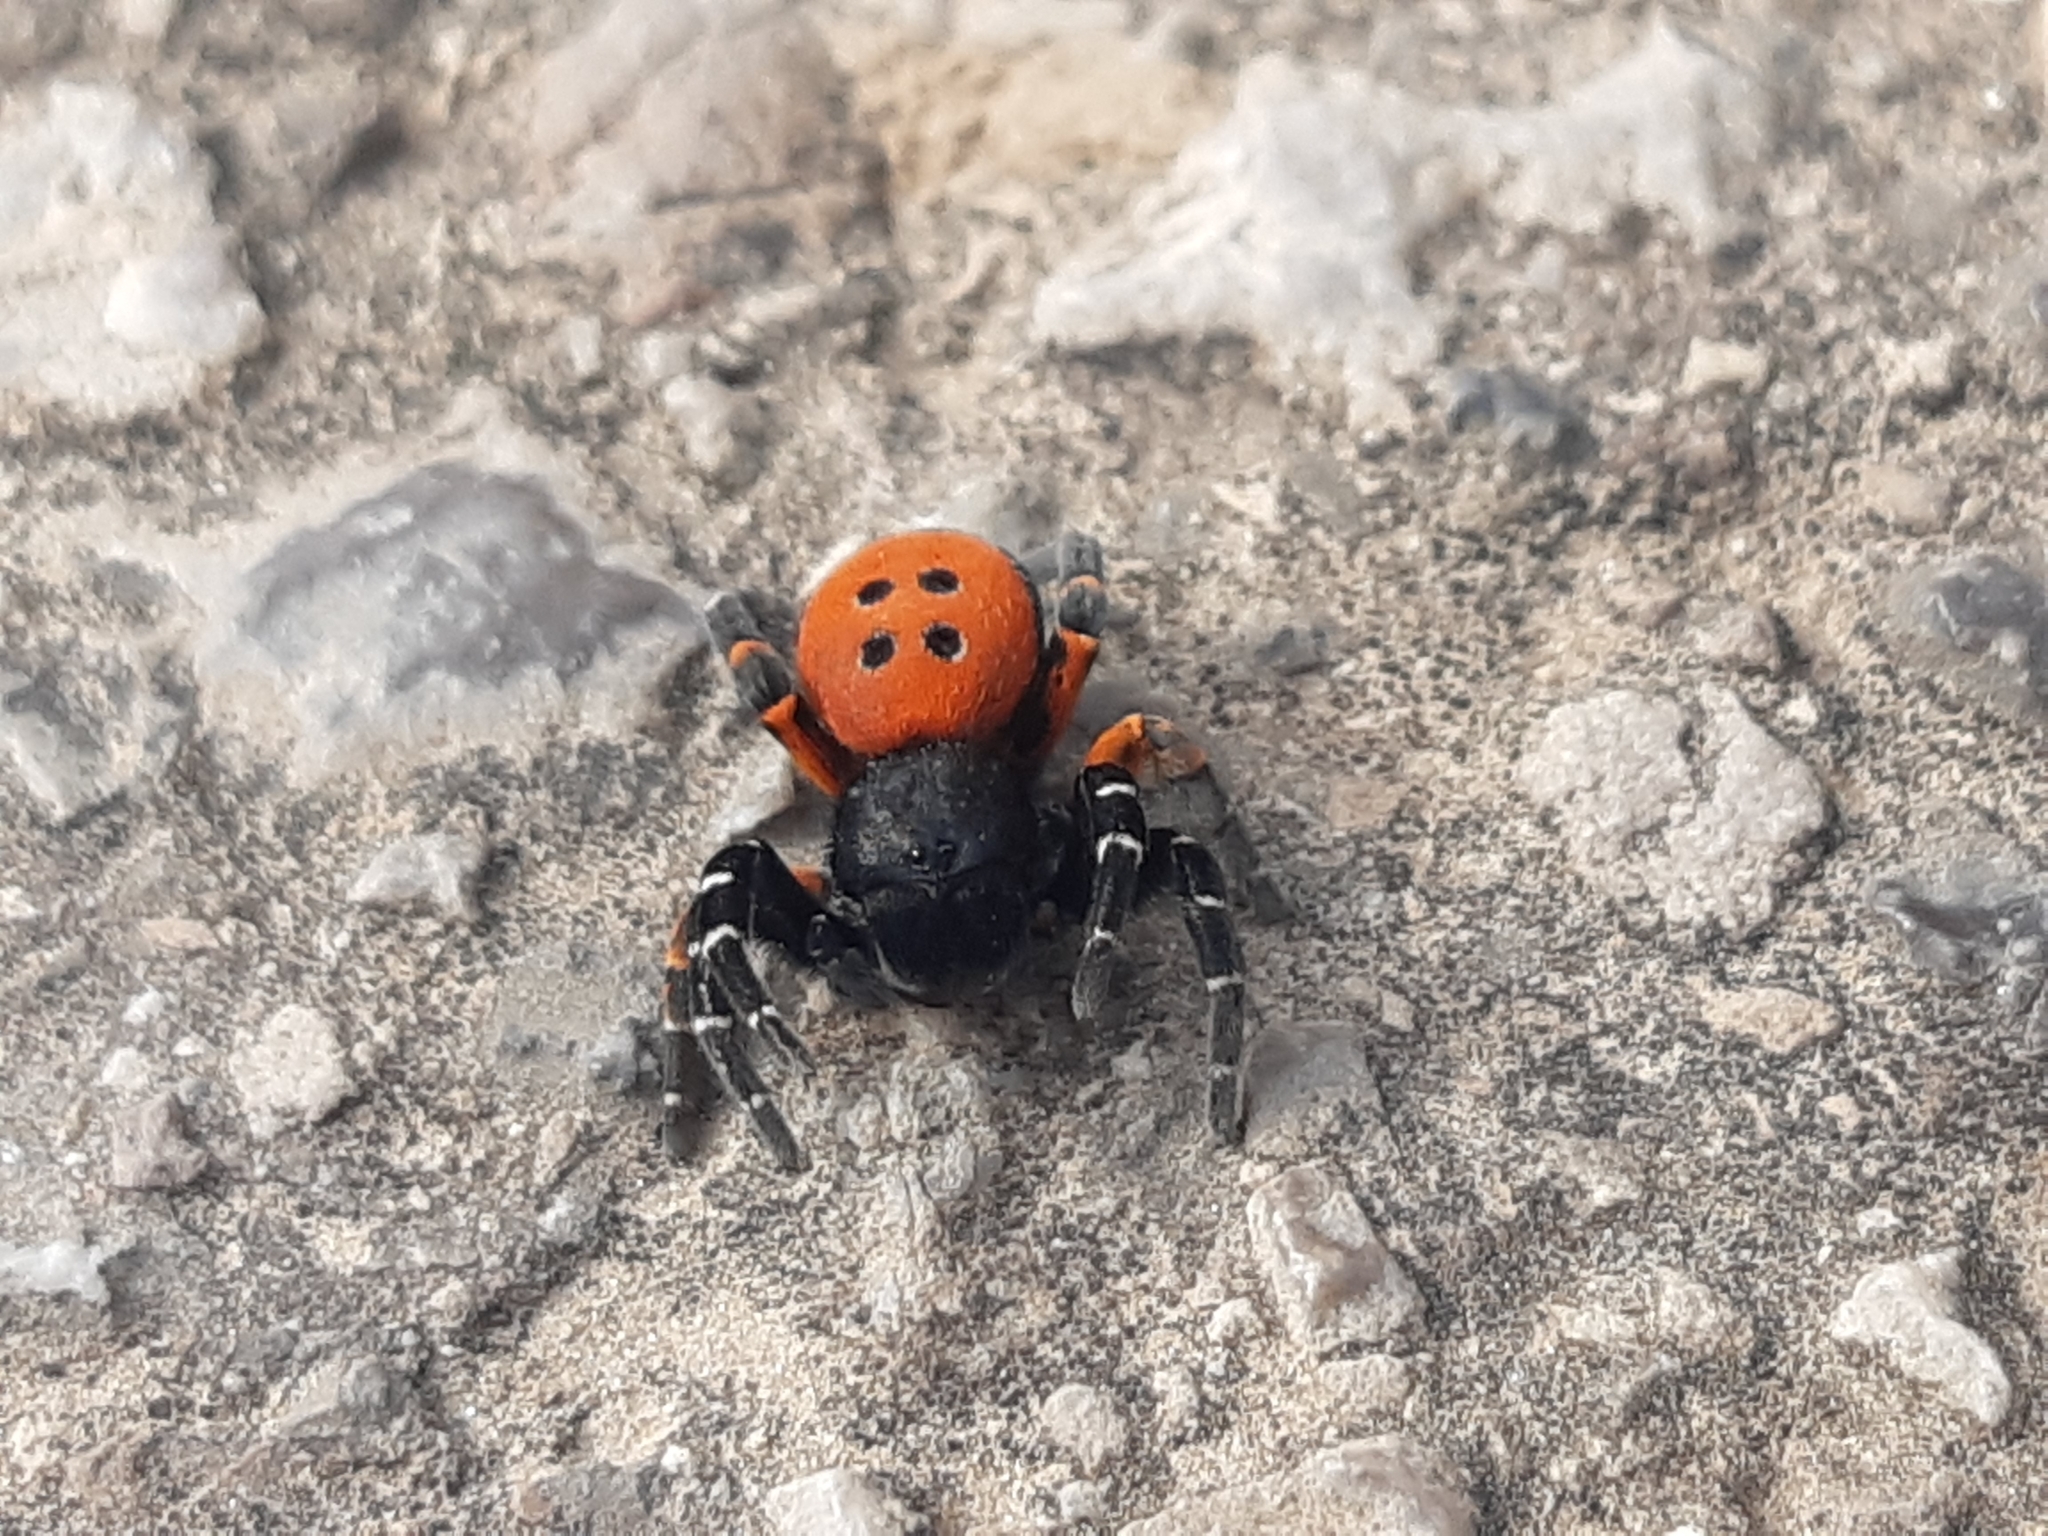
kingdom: Animalia
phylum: Arthropoda
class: Arachnida
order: Araneae
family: Eresidae
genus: Eresus
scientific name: Eresus kollari
